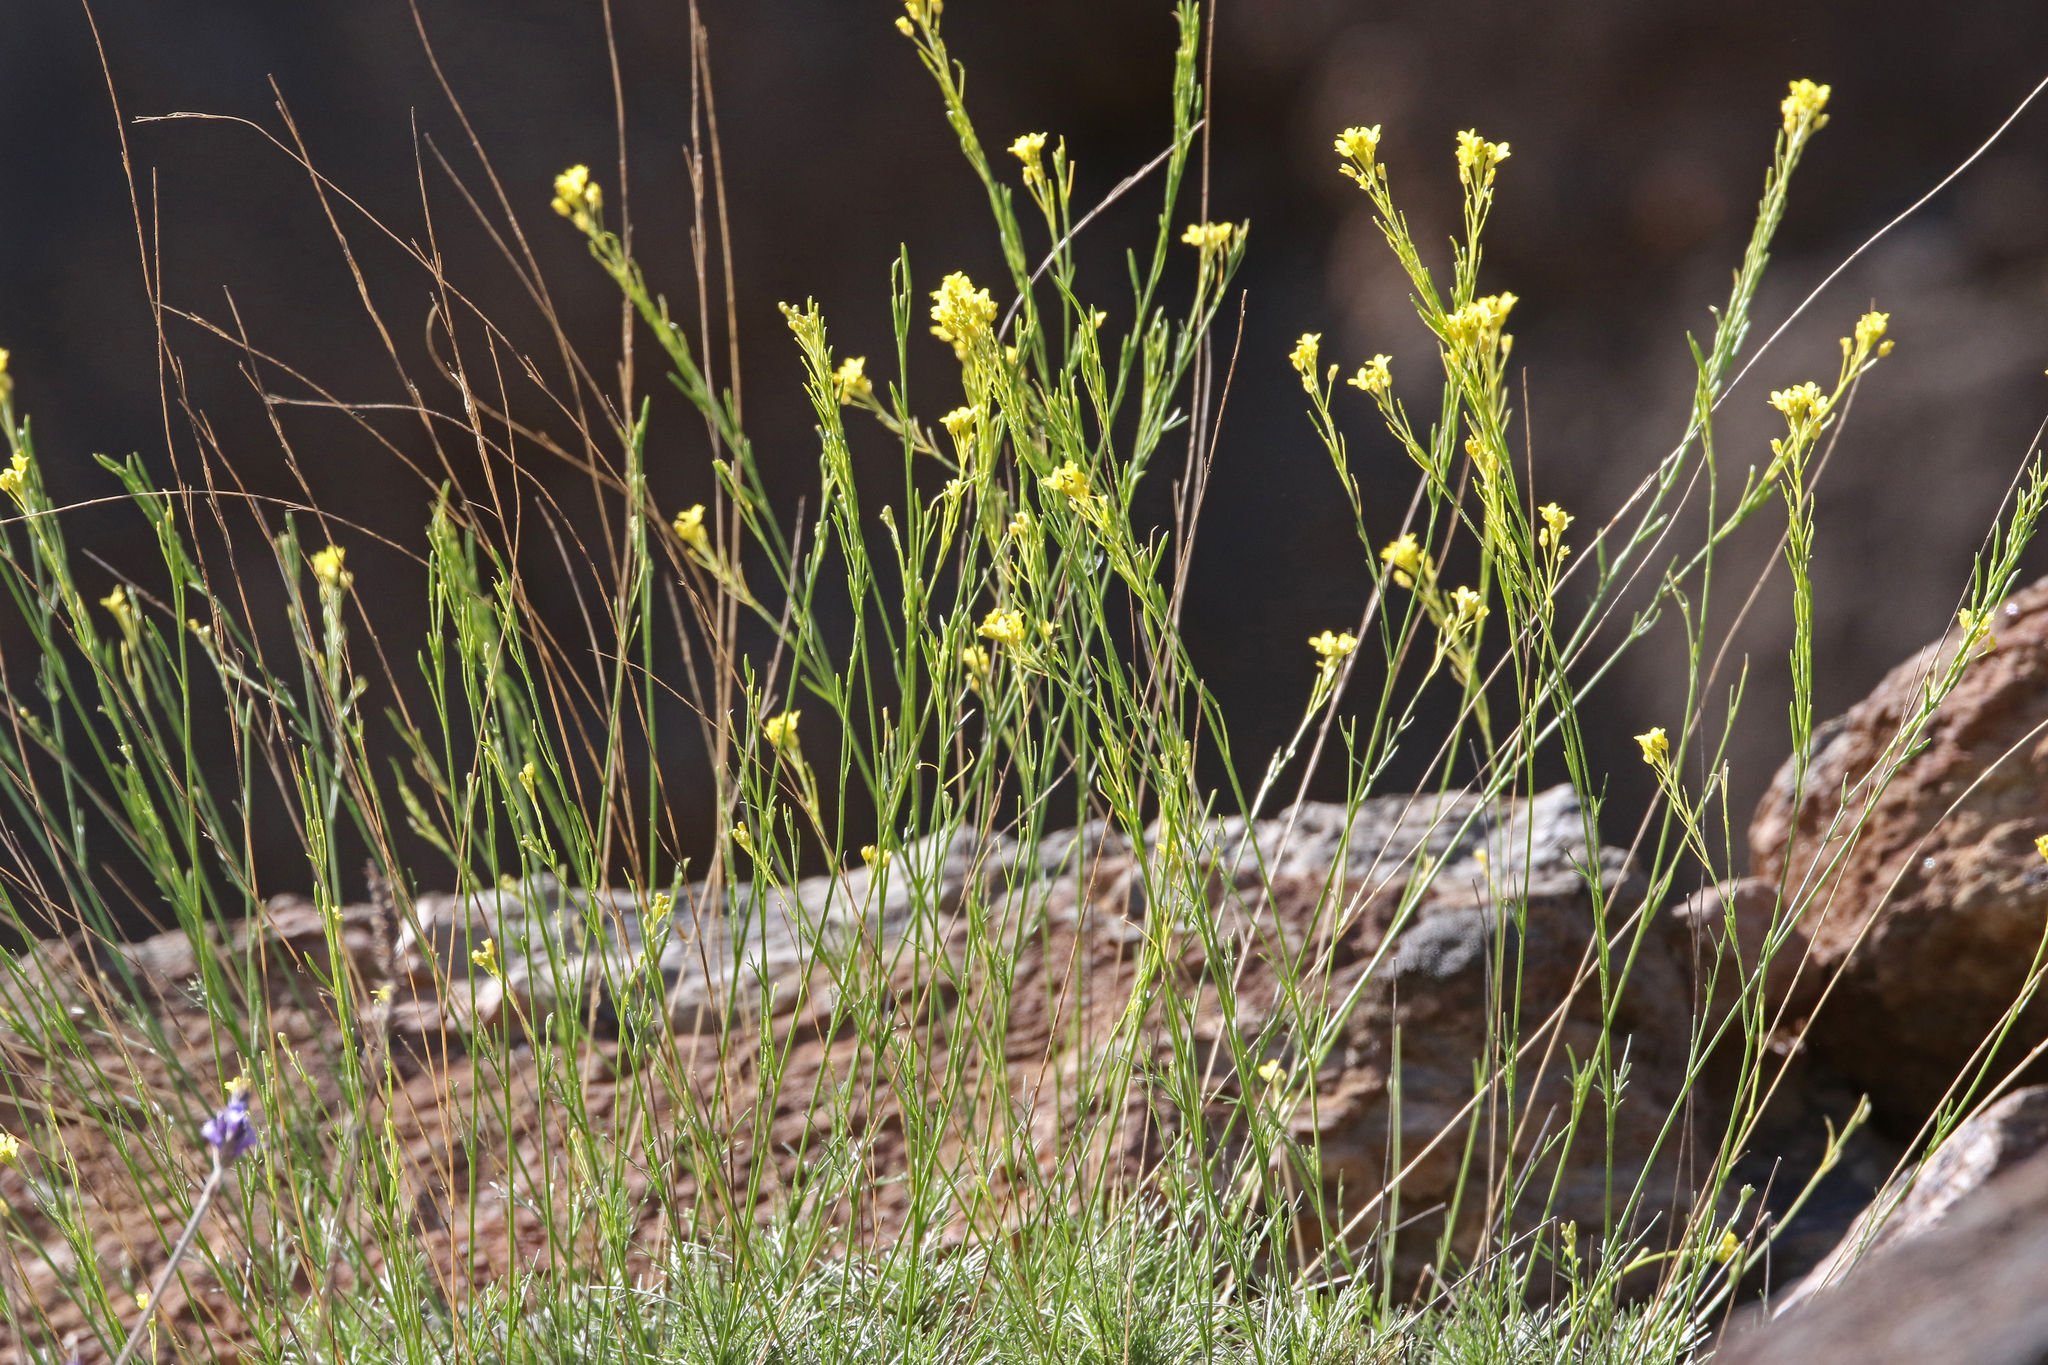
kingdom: Plantae
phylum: Tracheophyta
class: Magnoliopsida
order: Brassicales
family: Brassicaceae
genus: Descurainia
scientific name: Descurainia preauxiana
